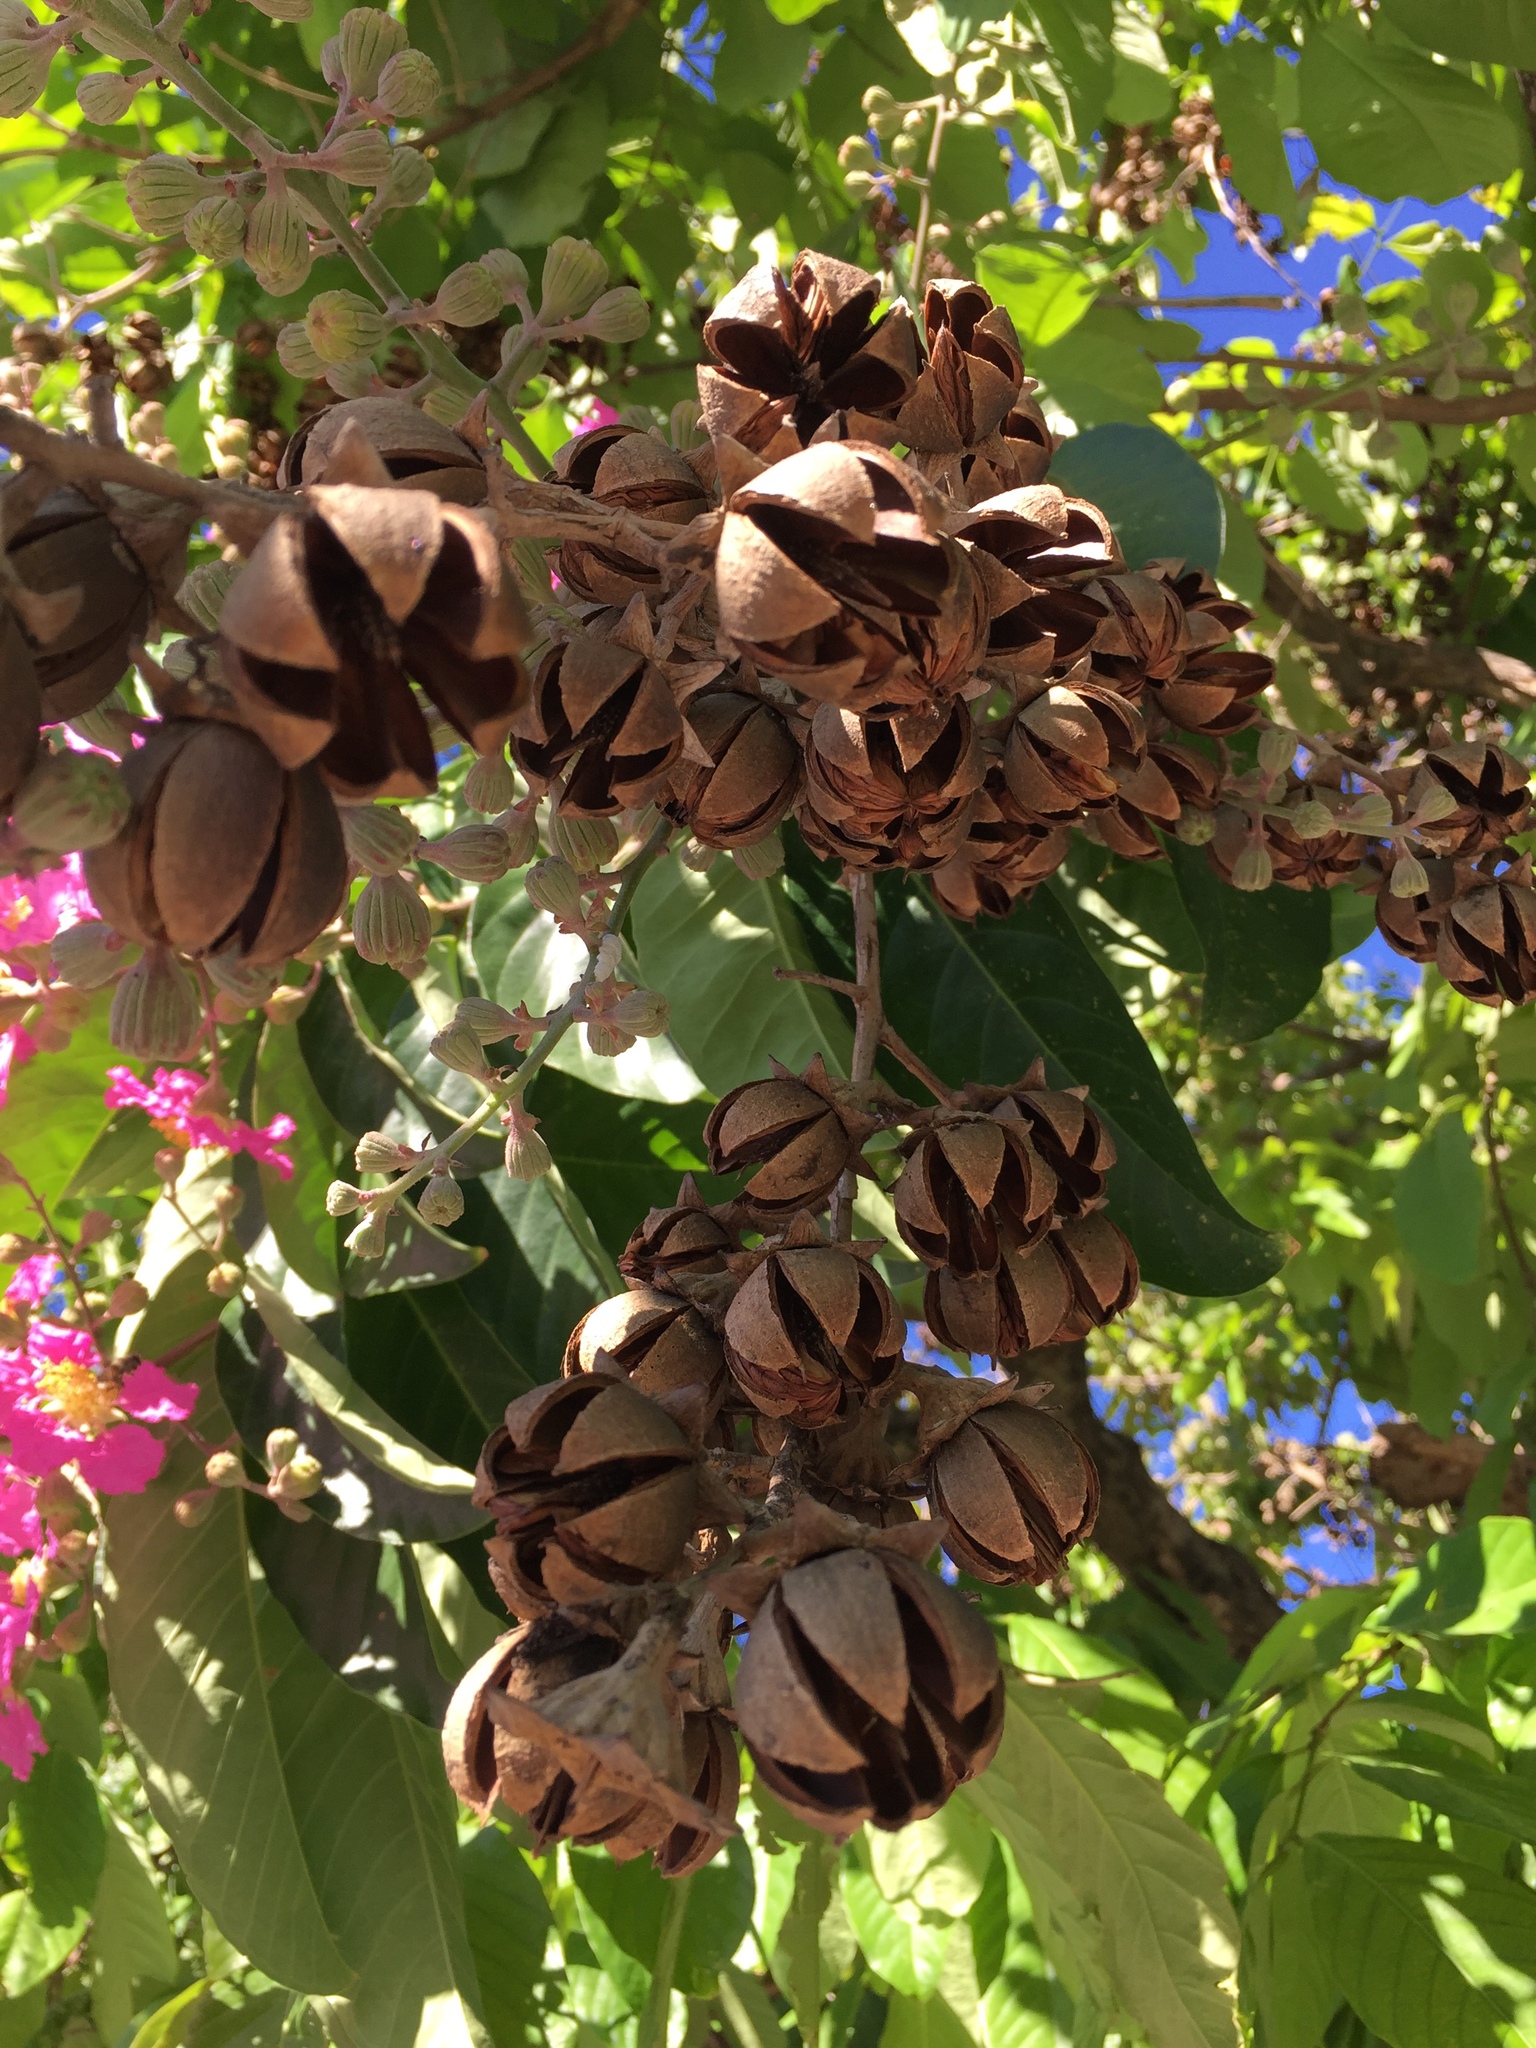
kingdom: Plantae
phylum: Tracheophyta
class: Magnoliopsida
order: Myrtales
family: Lythraceae
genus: Lagerstroemia
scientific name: Lagerstroemia speciosa
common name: Queen's crape-myrtle
